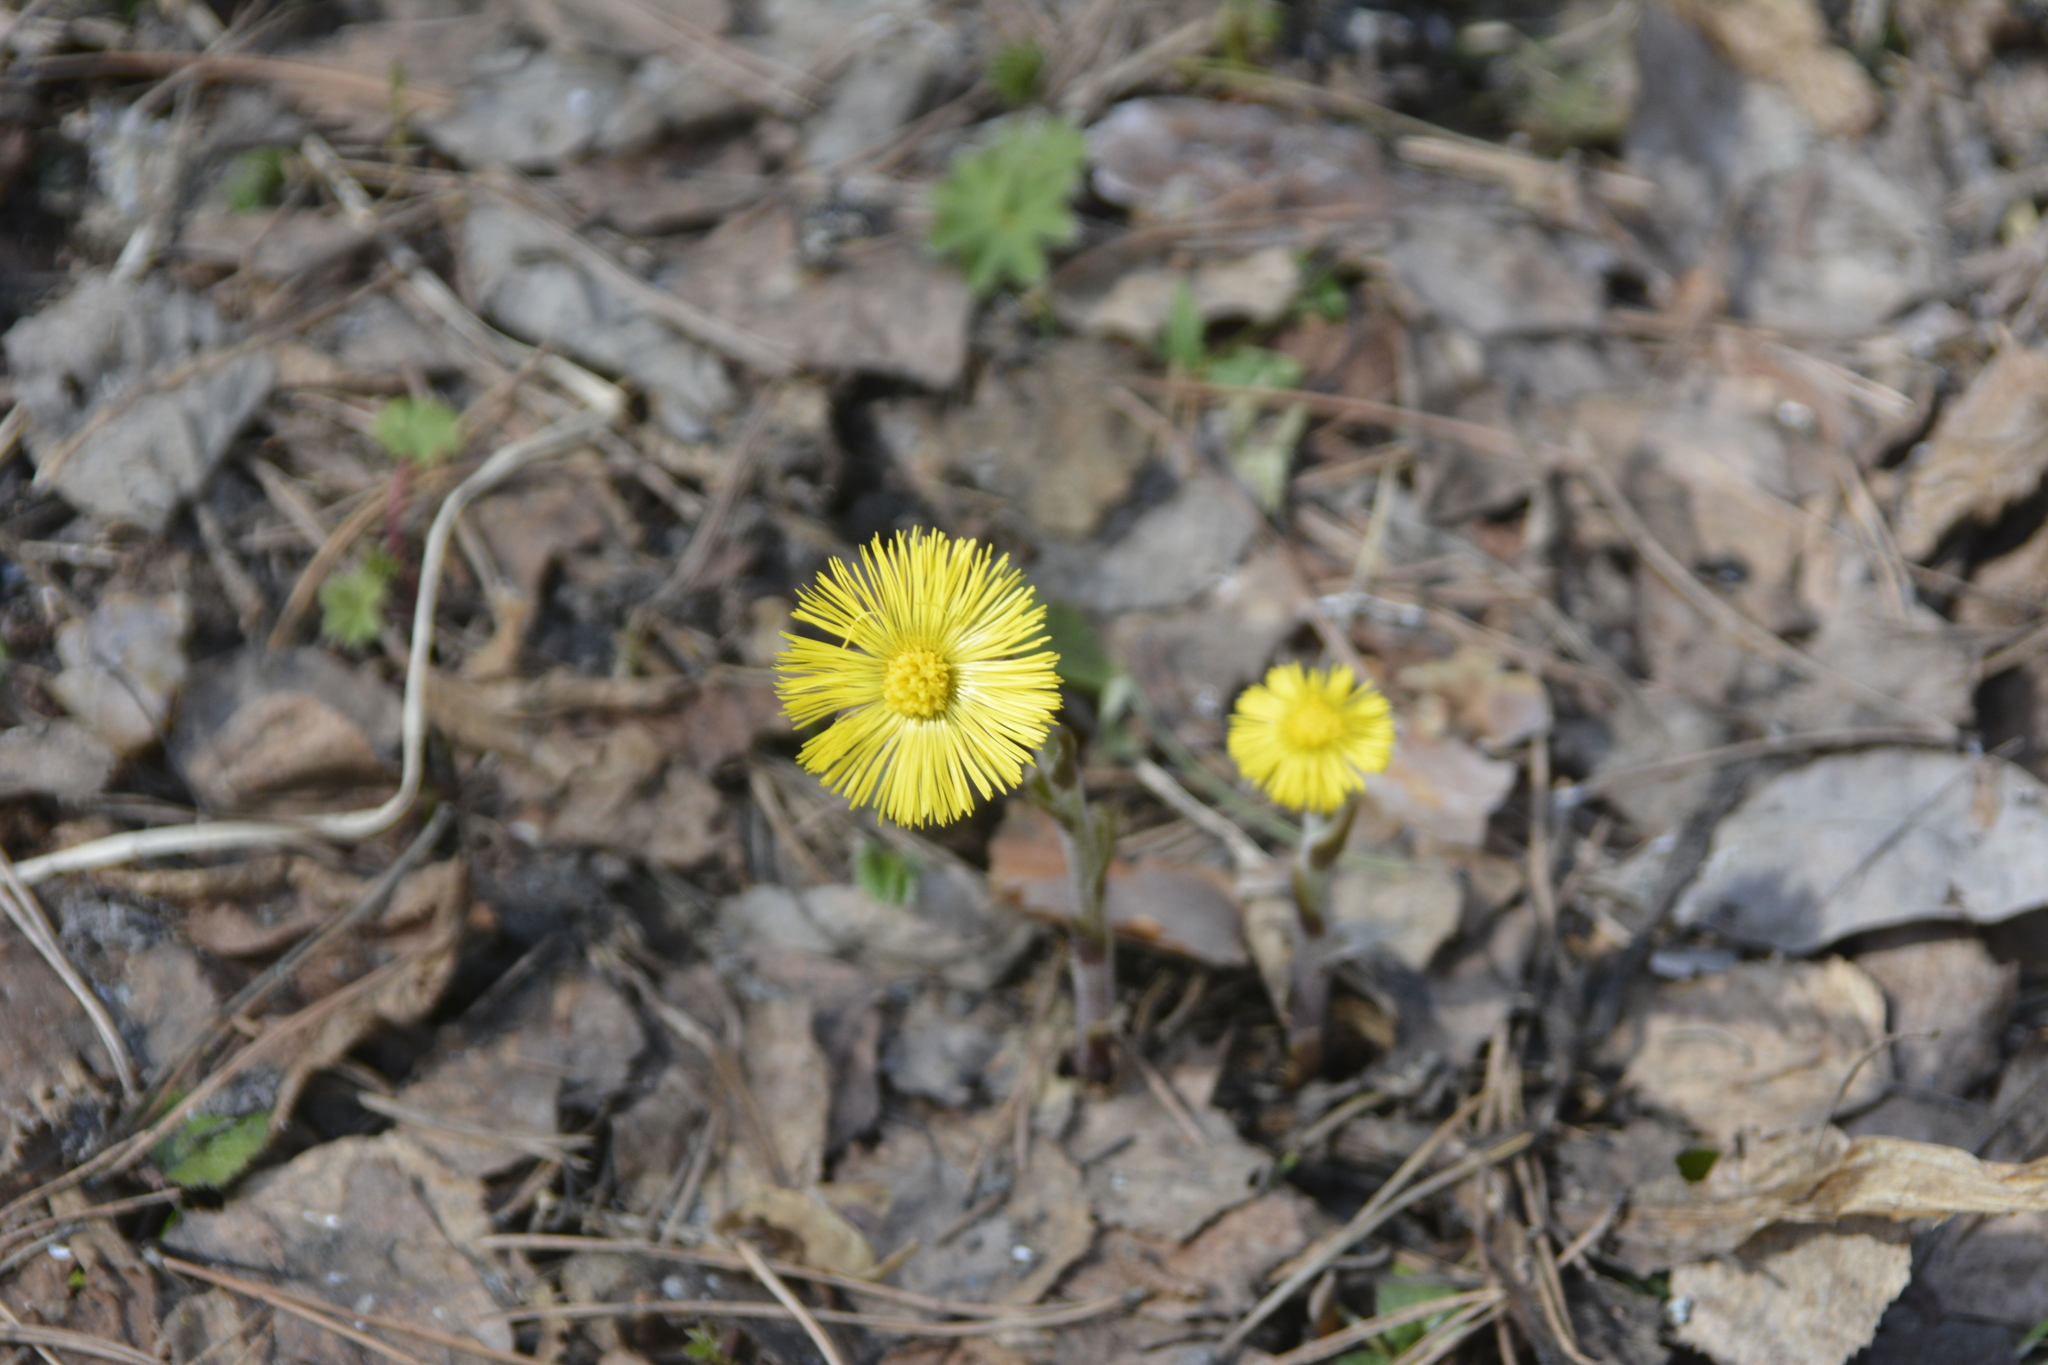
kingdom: Plantae
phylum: Tracheophyta
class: Magnoliopsida
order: Asterales
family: Asteraceae
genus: Tussilago
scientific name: Tussilago farfara
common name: Coltsfoot
